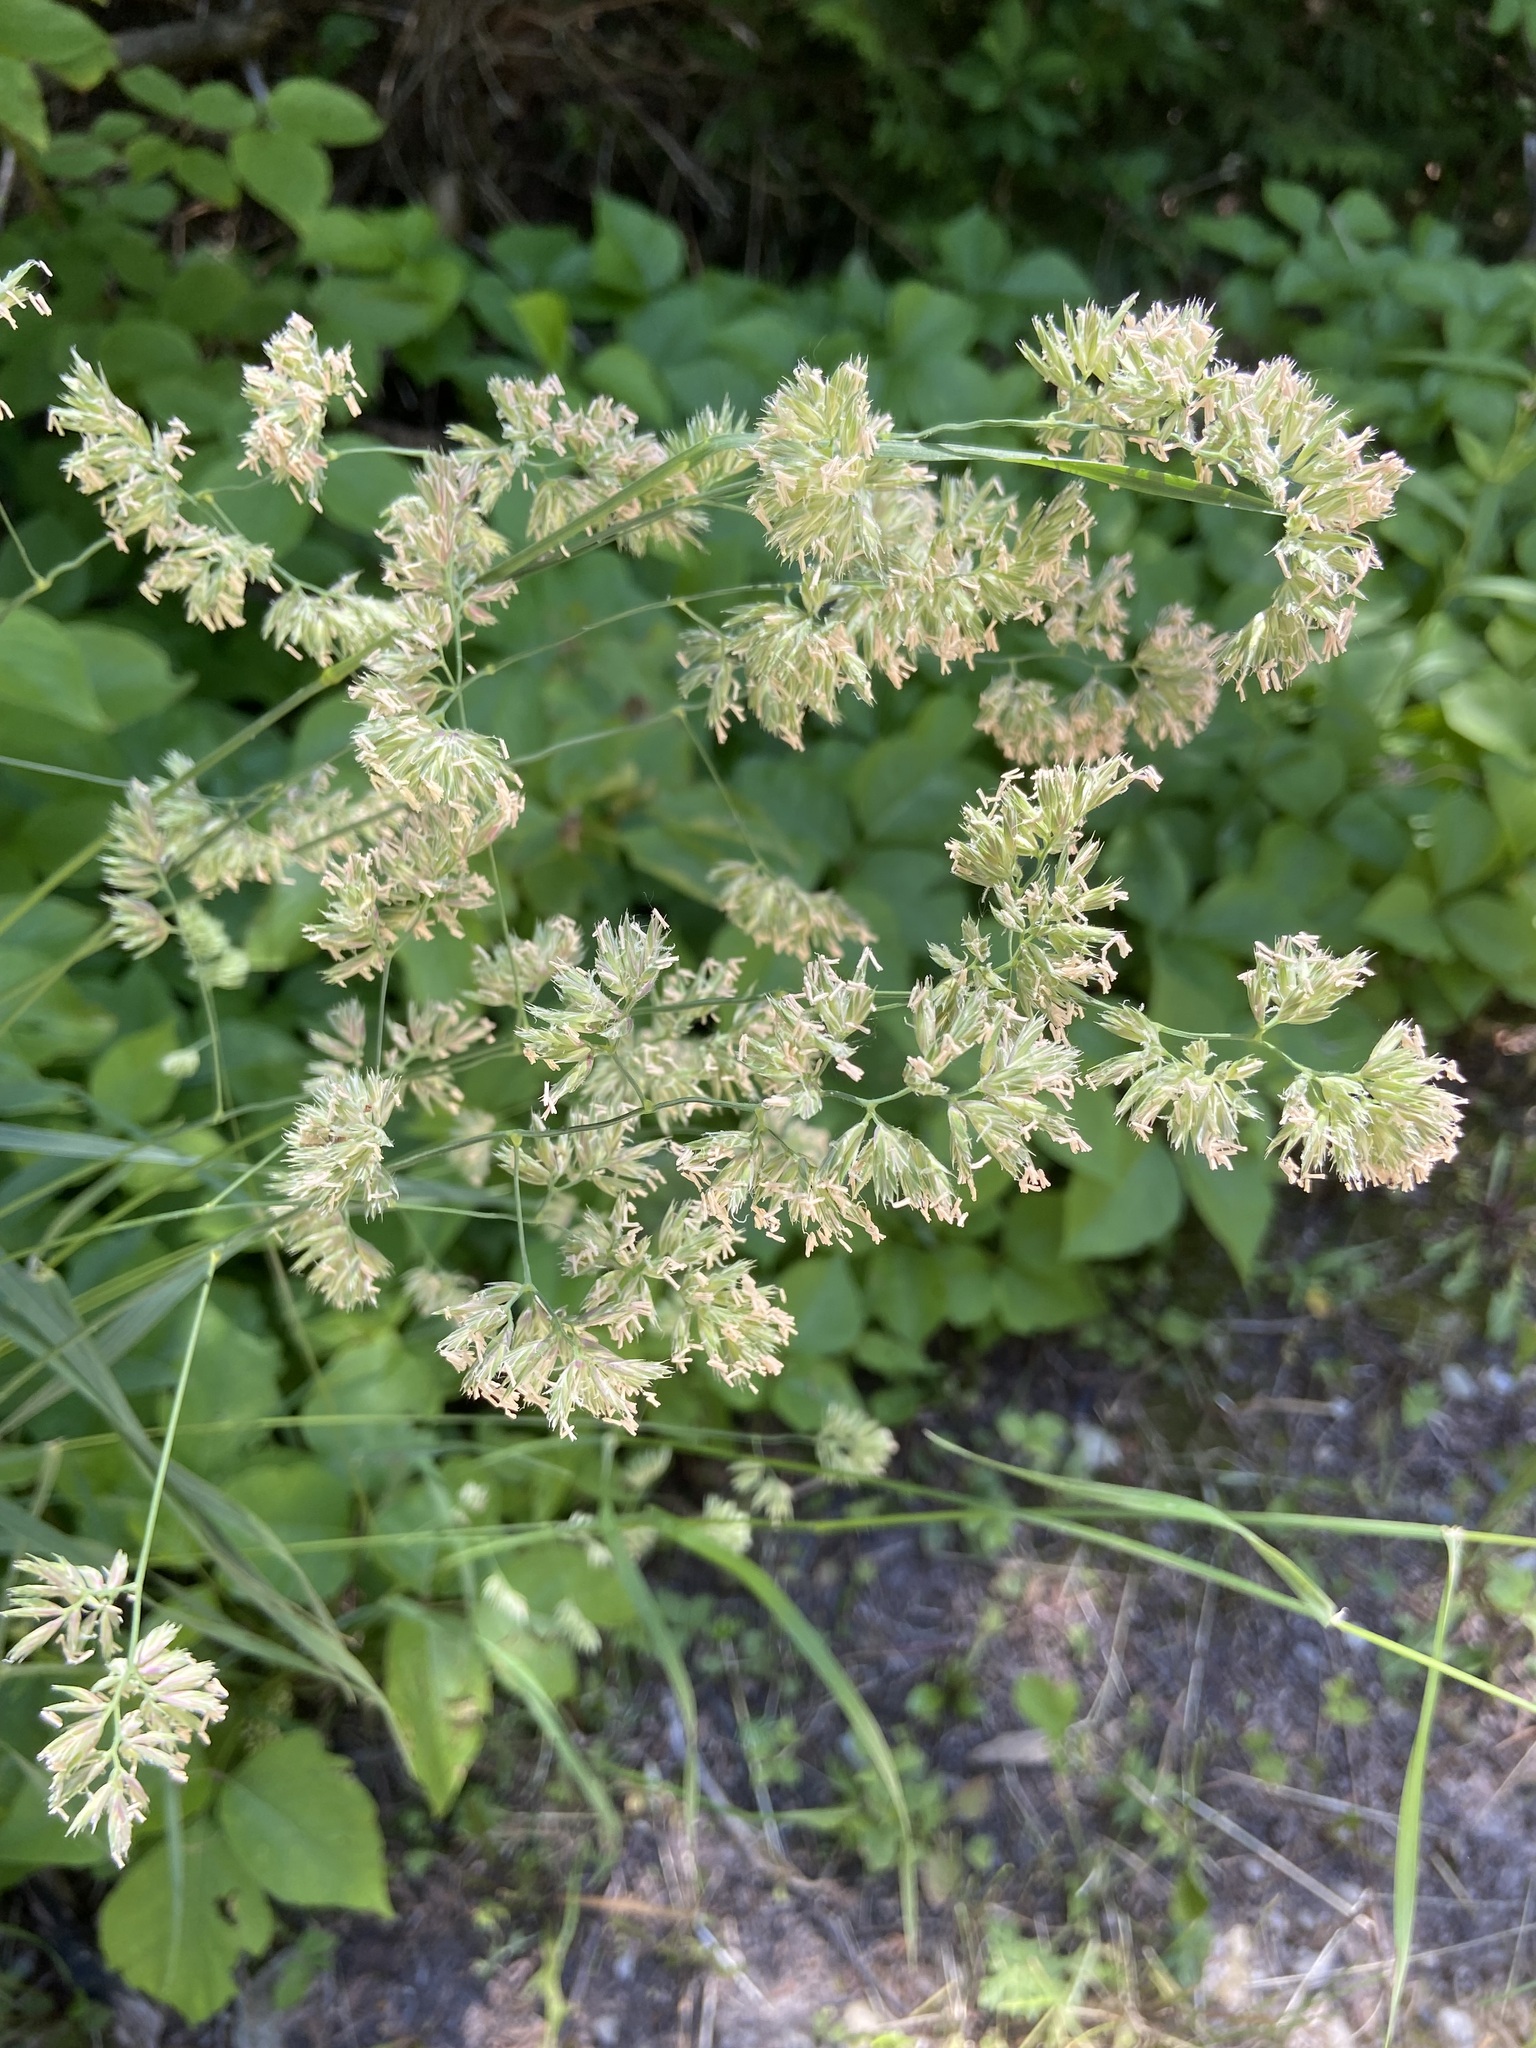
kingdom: Plantae
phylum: Tracheophyta
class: Liliopsida
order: Poales
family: Poaceae
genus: Dactylis
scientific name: Dactylis glomerata
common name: Orchardgrass
